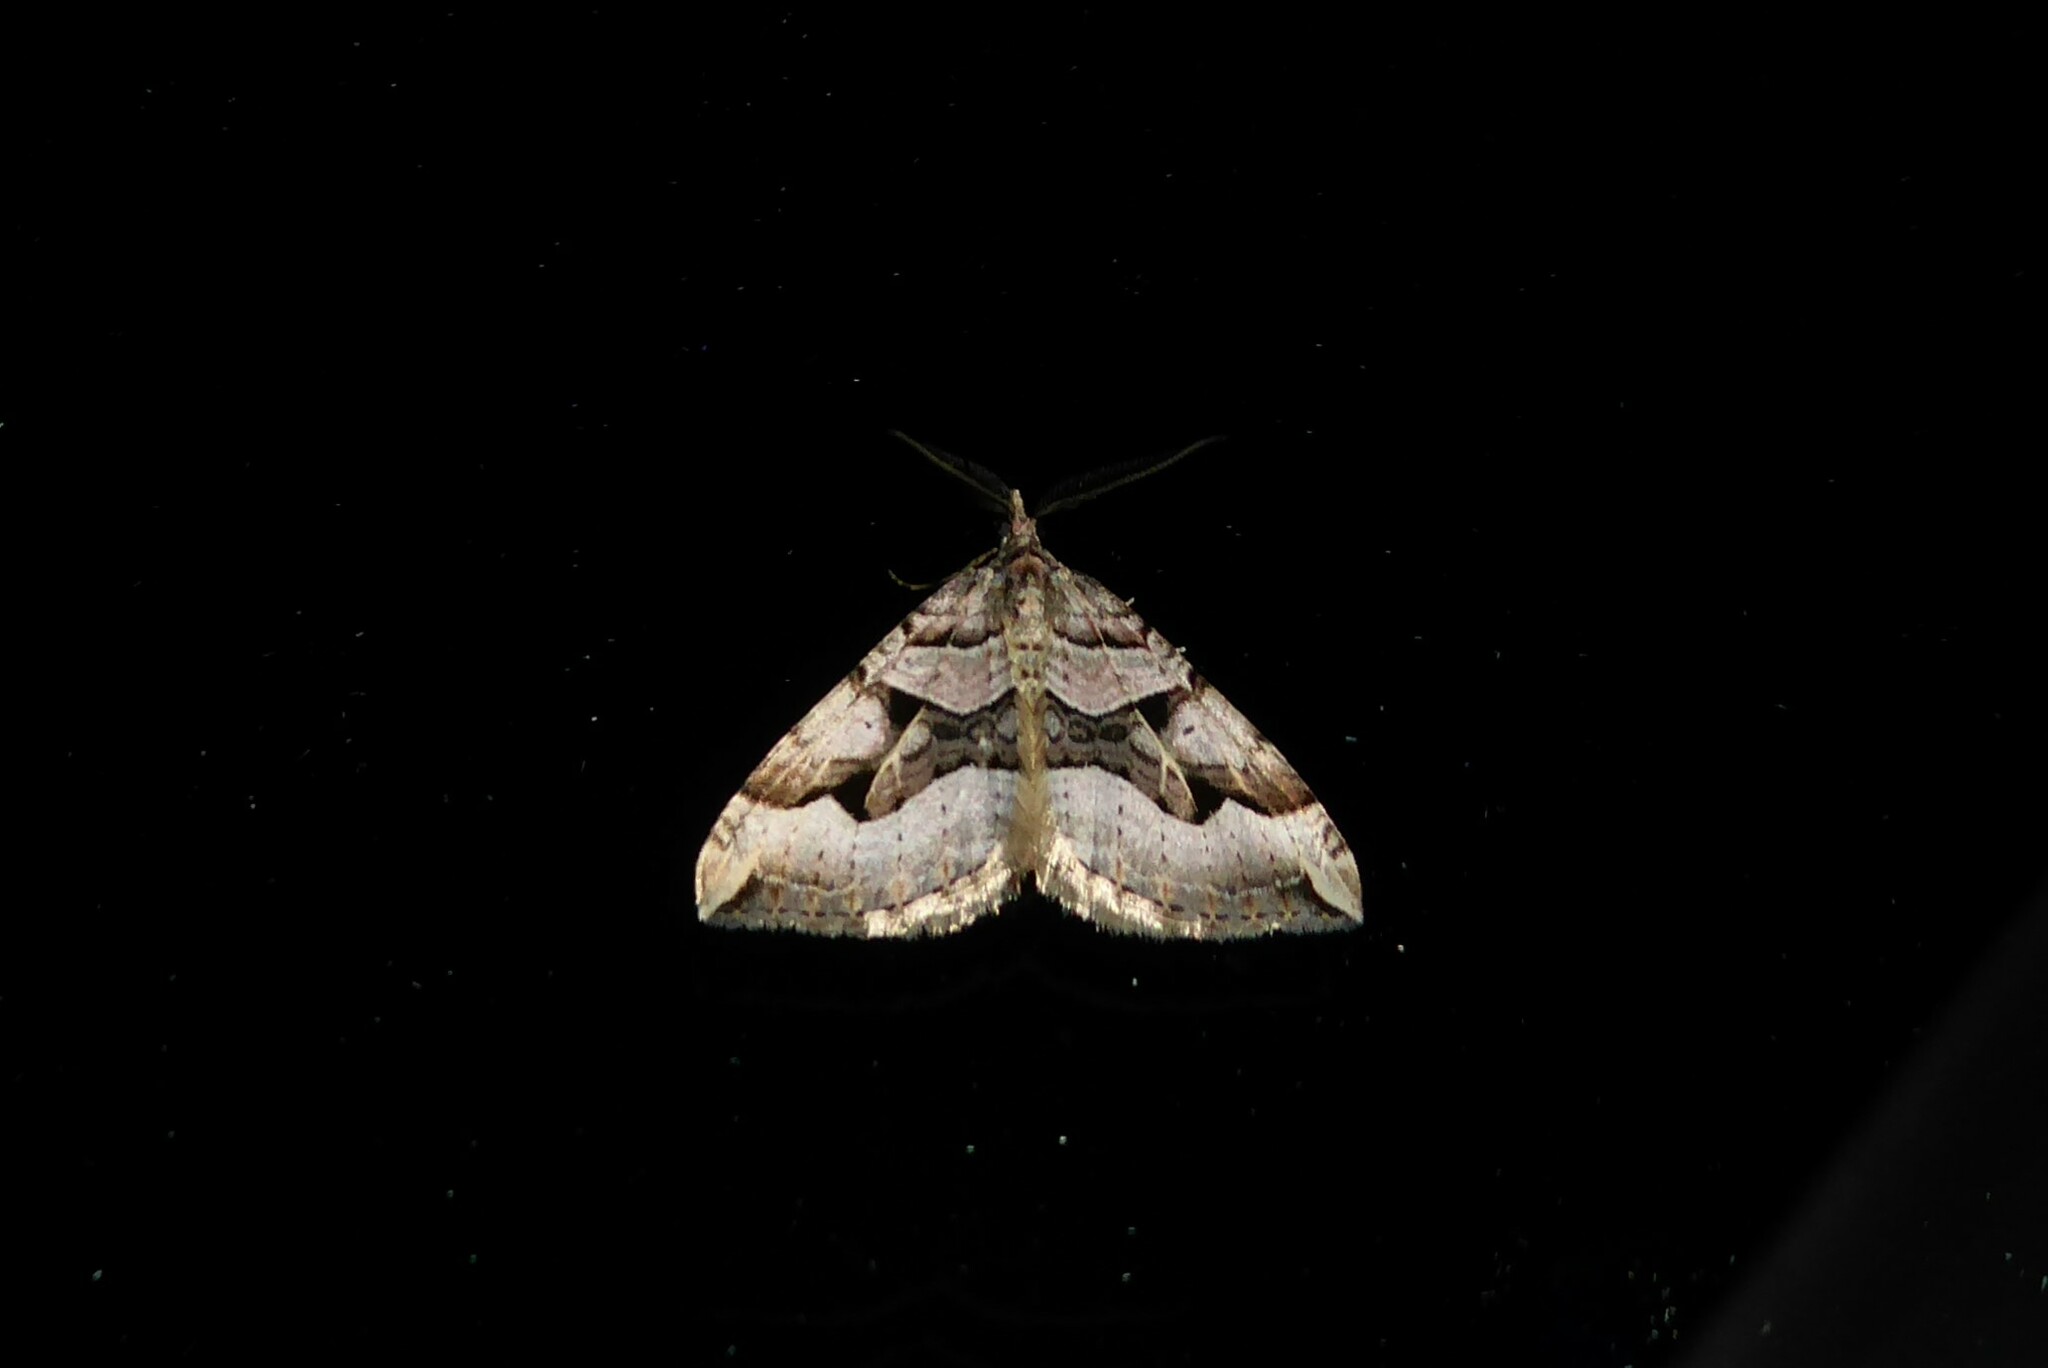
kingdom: Animalia
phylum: Arthropoda
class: Insecta
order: Lepidoptera
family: Geometridae
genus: Xanthorhoe
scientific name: Xanthorhoe semifissata
